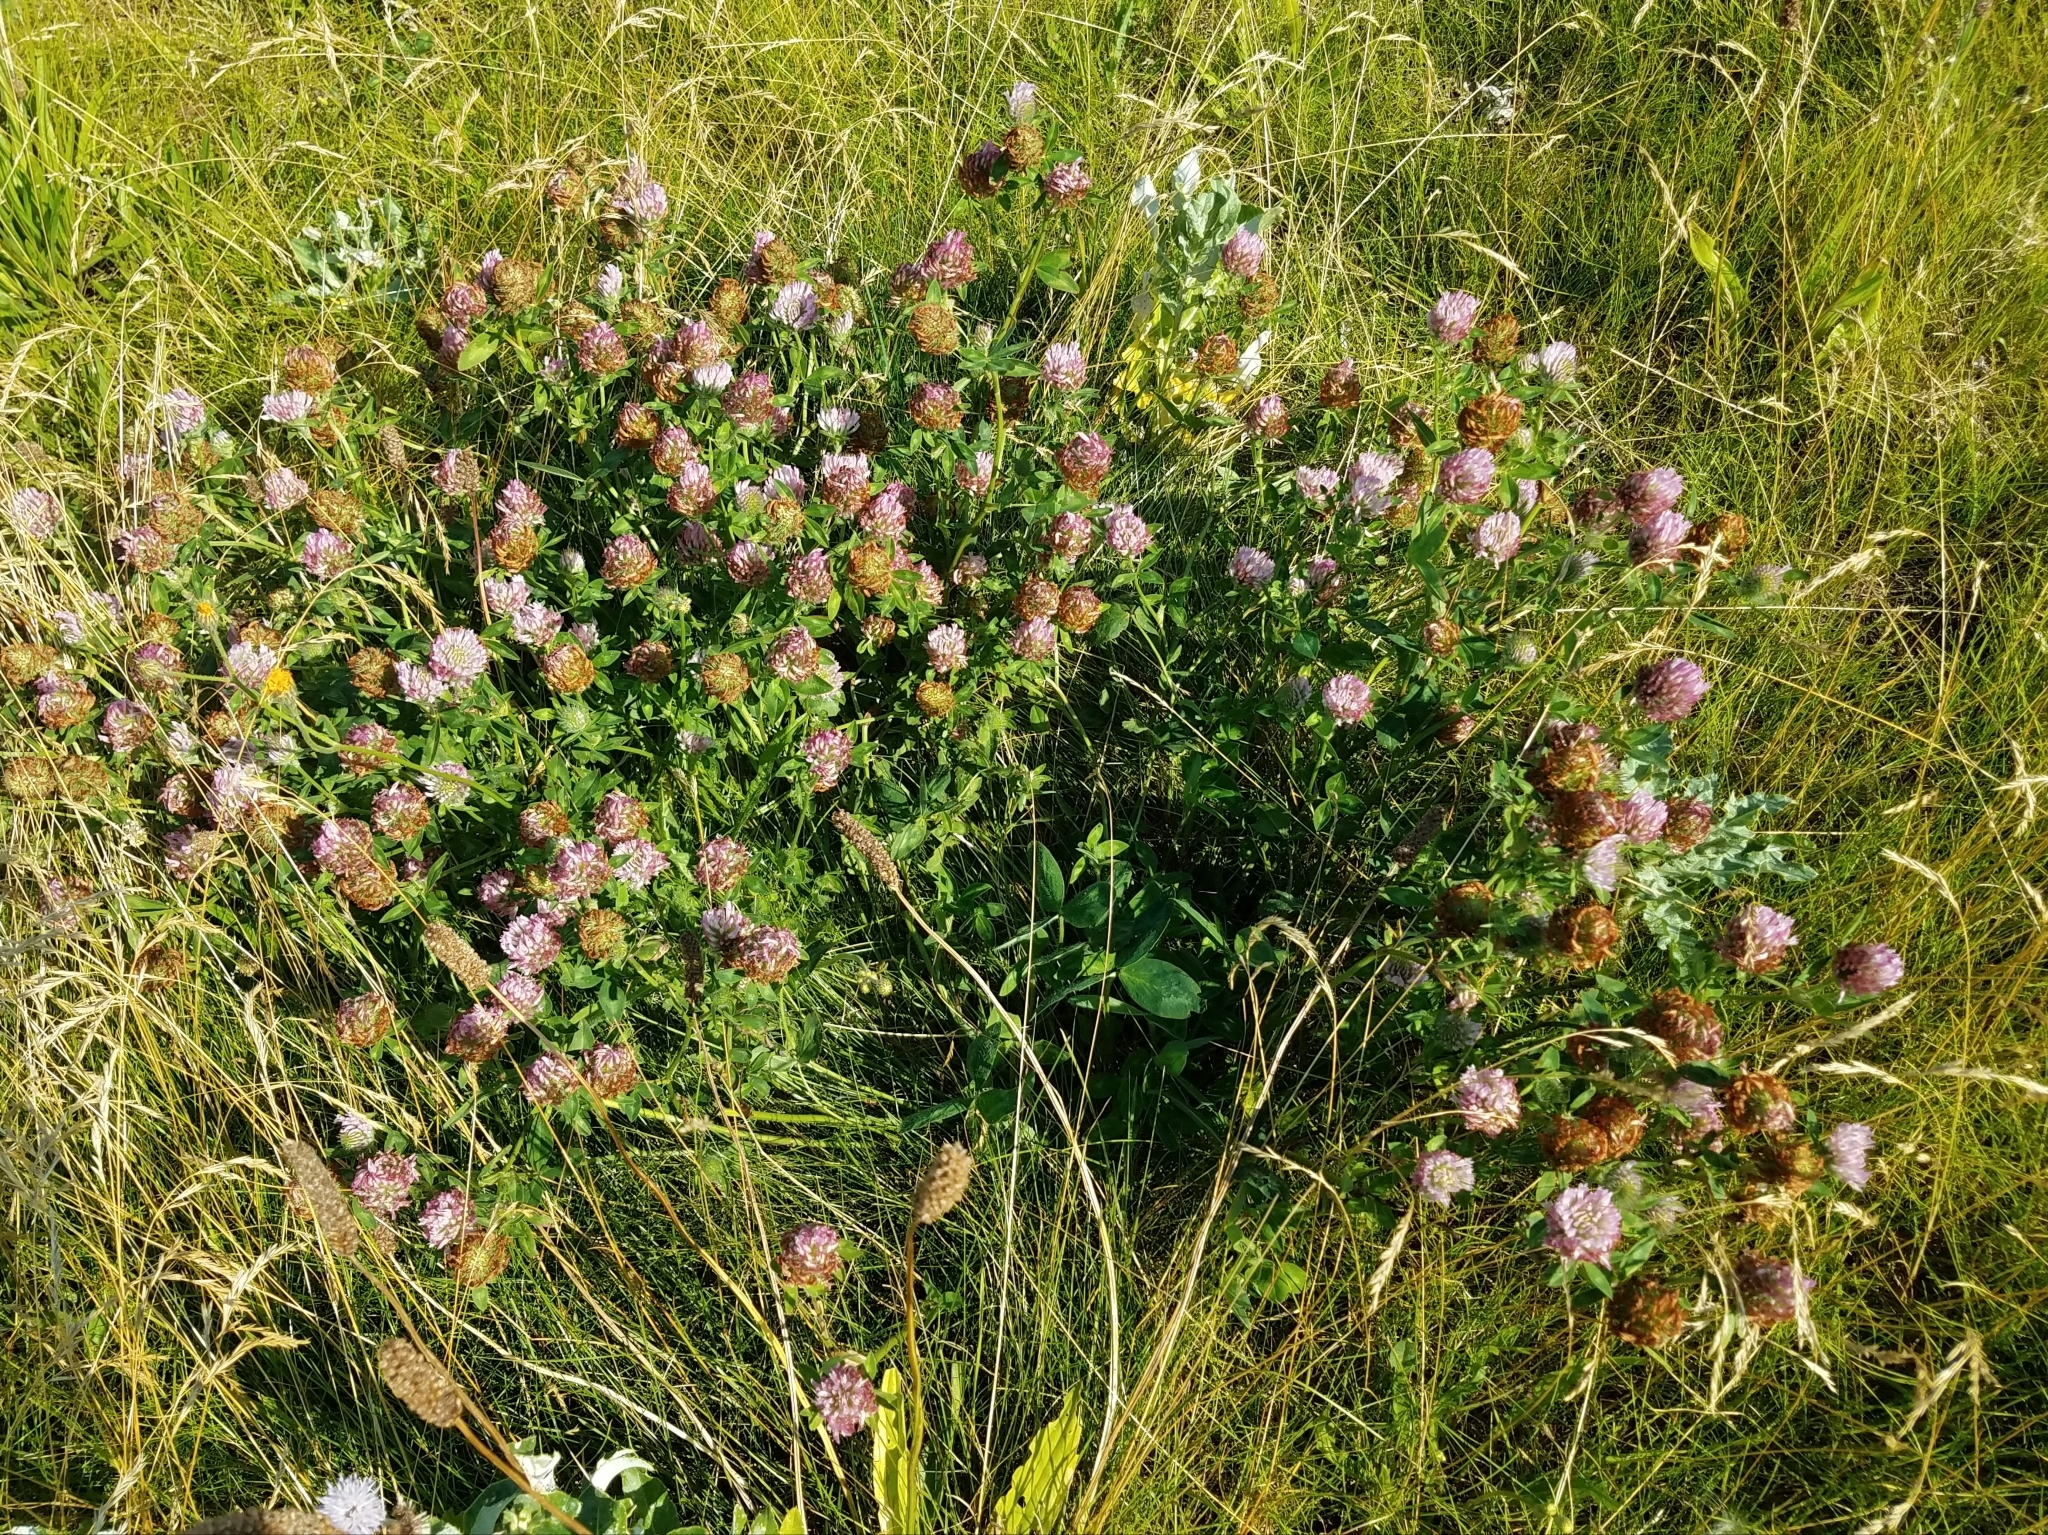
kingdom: Plantae
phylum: Tracheophyta
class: Magnoliopsida
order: Fabales
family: Fabaceae
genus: Trifolium
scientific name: Trifolium pratense
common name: Red clover
